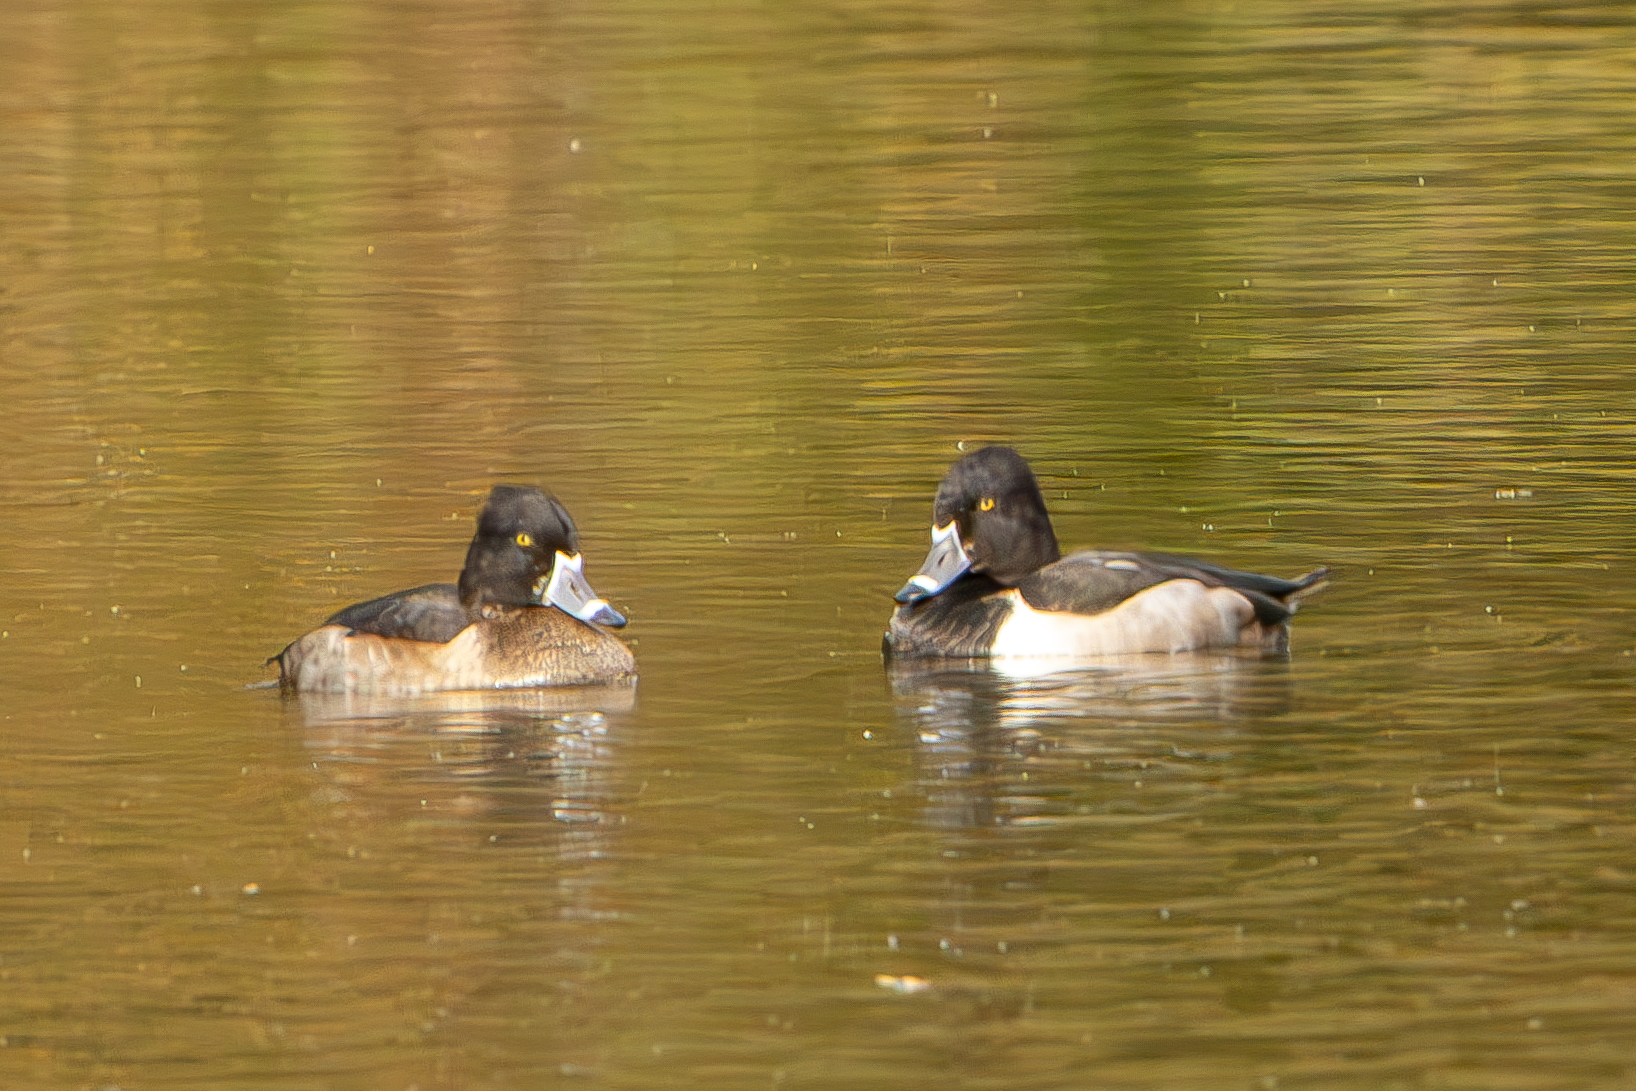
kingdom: Animalia
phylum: Chordata
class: Aves
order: Anseriformes
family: Anatidae
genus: Aythya
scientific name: Aythya collaris
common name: Ring-necked duck
